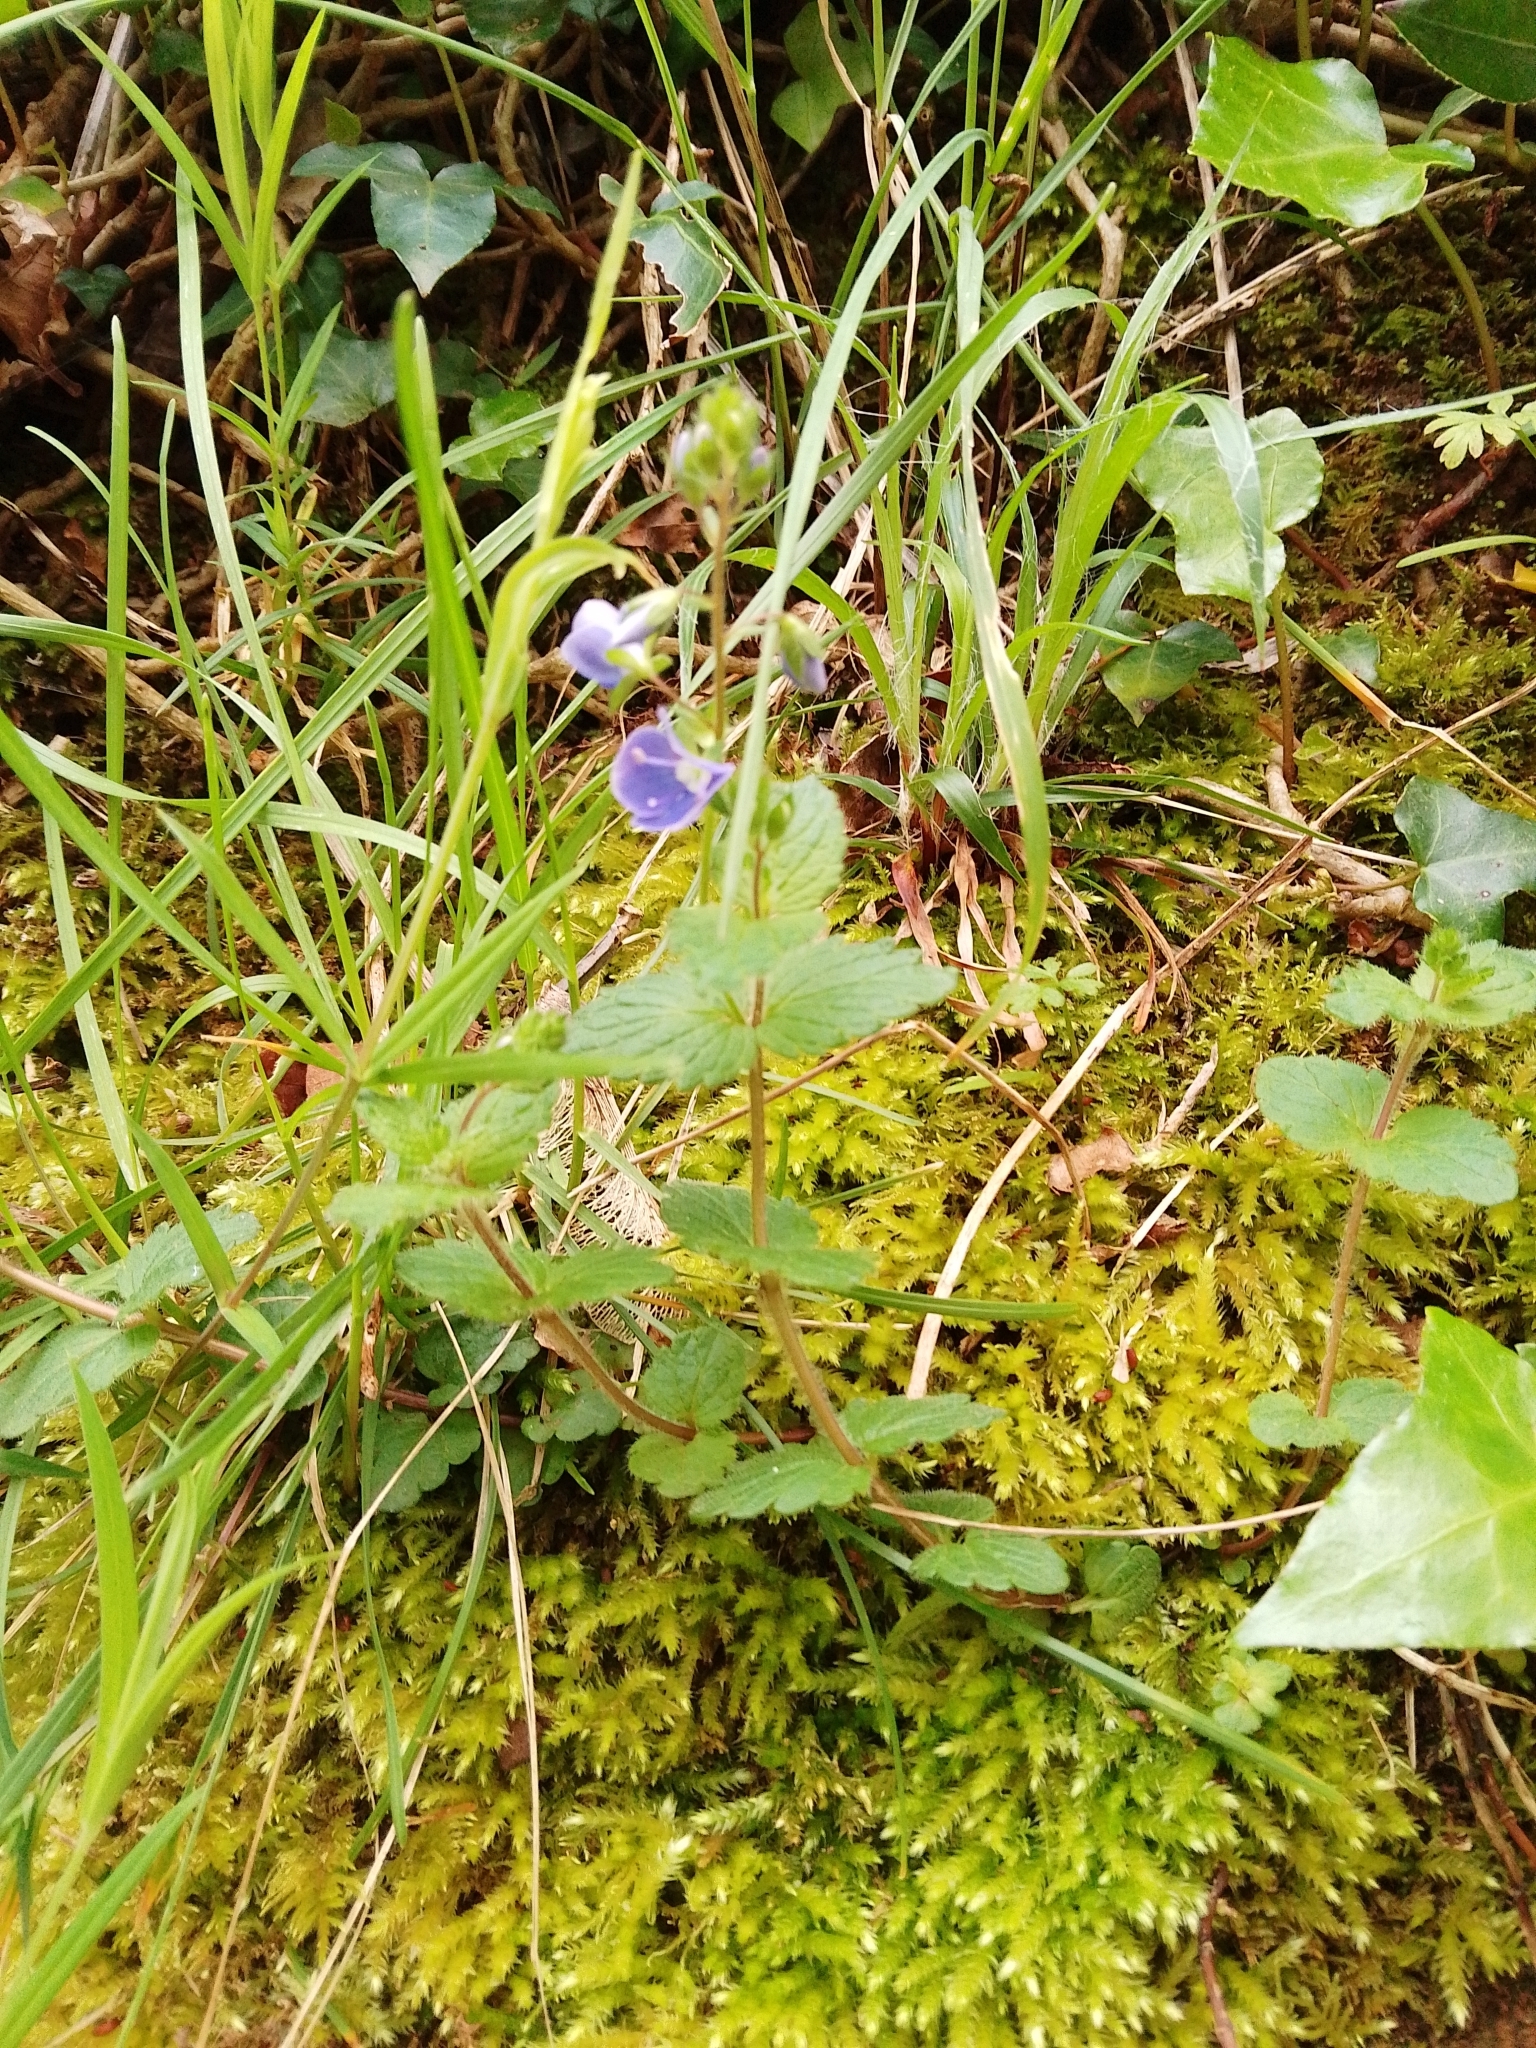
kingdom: Plantae
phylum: Tracheophyta
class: Magnoliopsida
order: Lamiales
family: Plantaginaceae
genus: Veronica
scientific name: Veronica chamaedrys
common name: Germander speedwell
